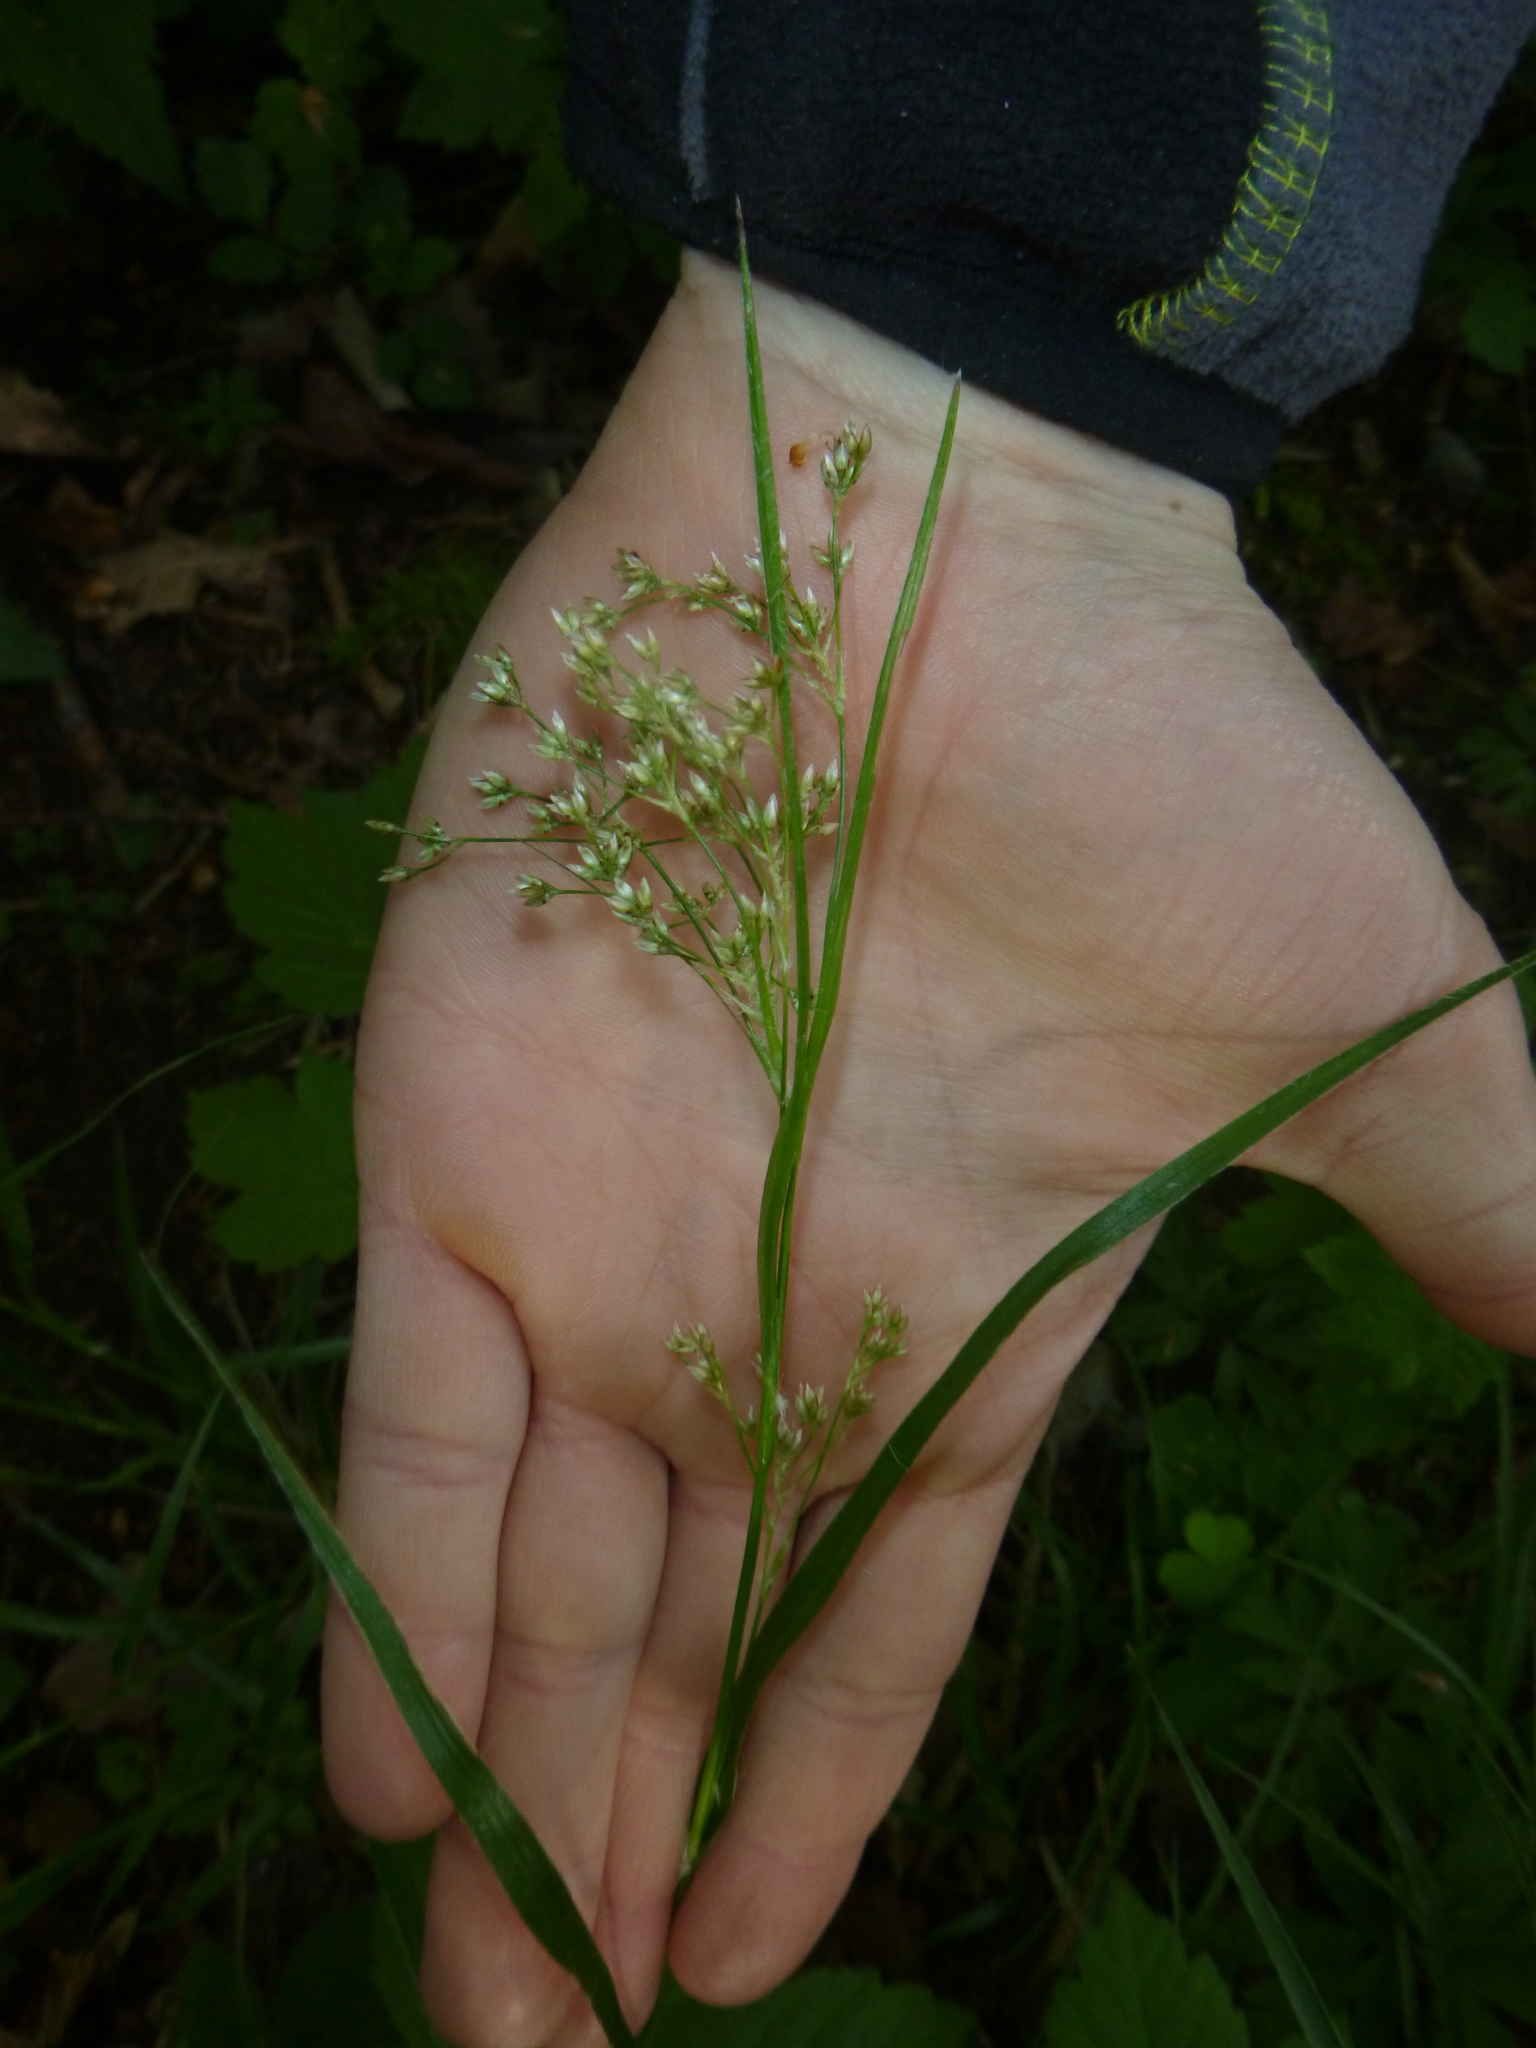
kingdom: Plantae
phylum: Tracheophyta
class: Liliopsida
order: Poales
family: Juncaceae
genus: Luzula
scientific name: Luzula luzuloides
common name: White wood-rush
